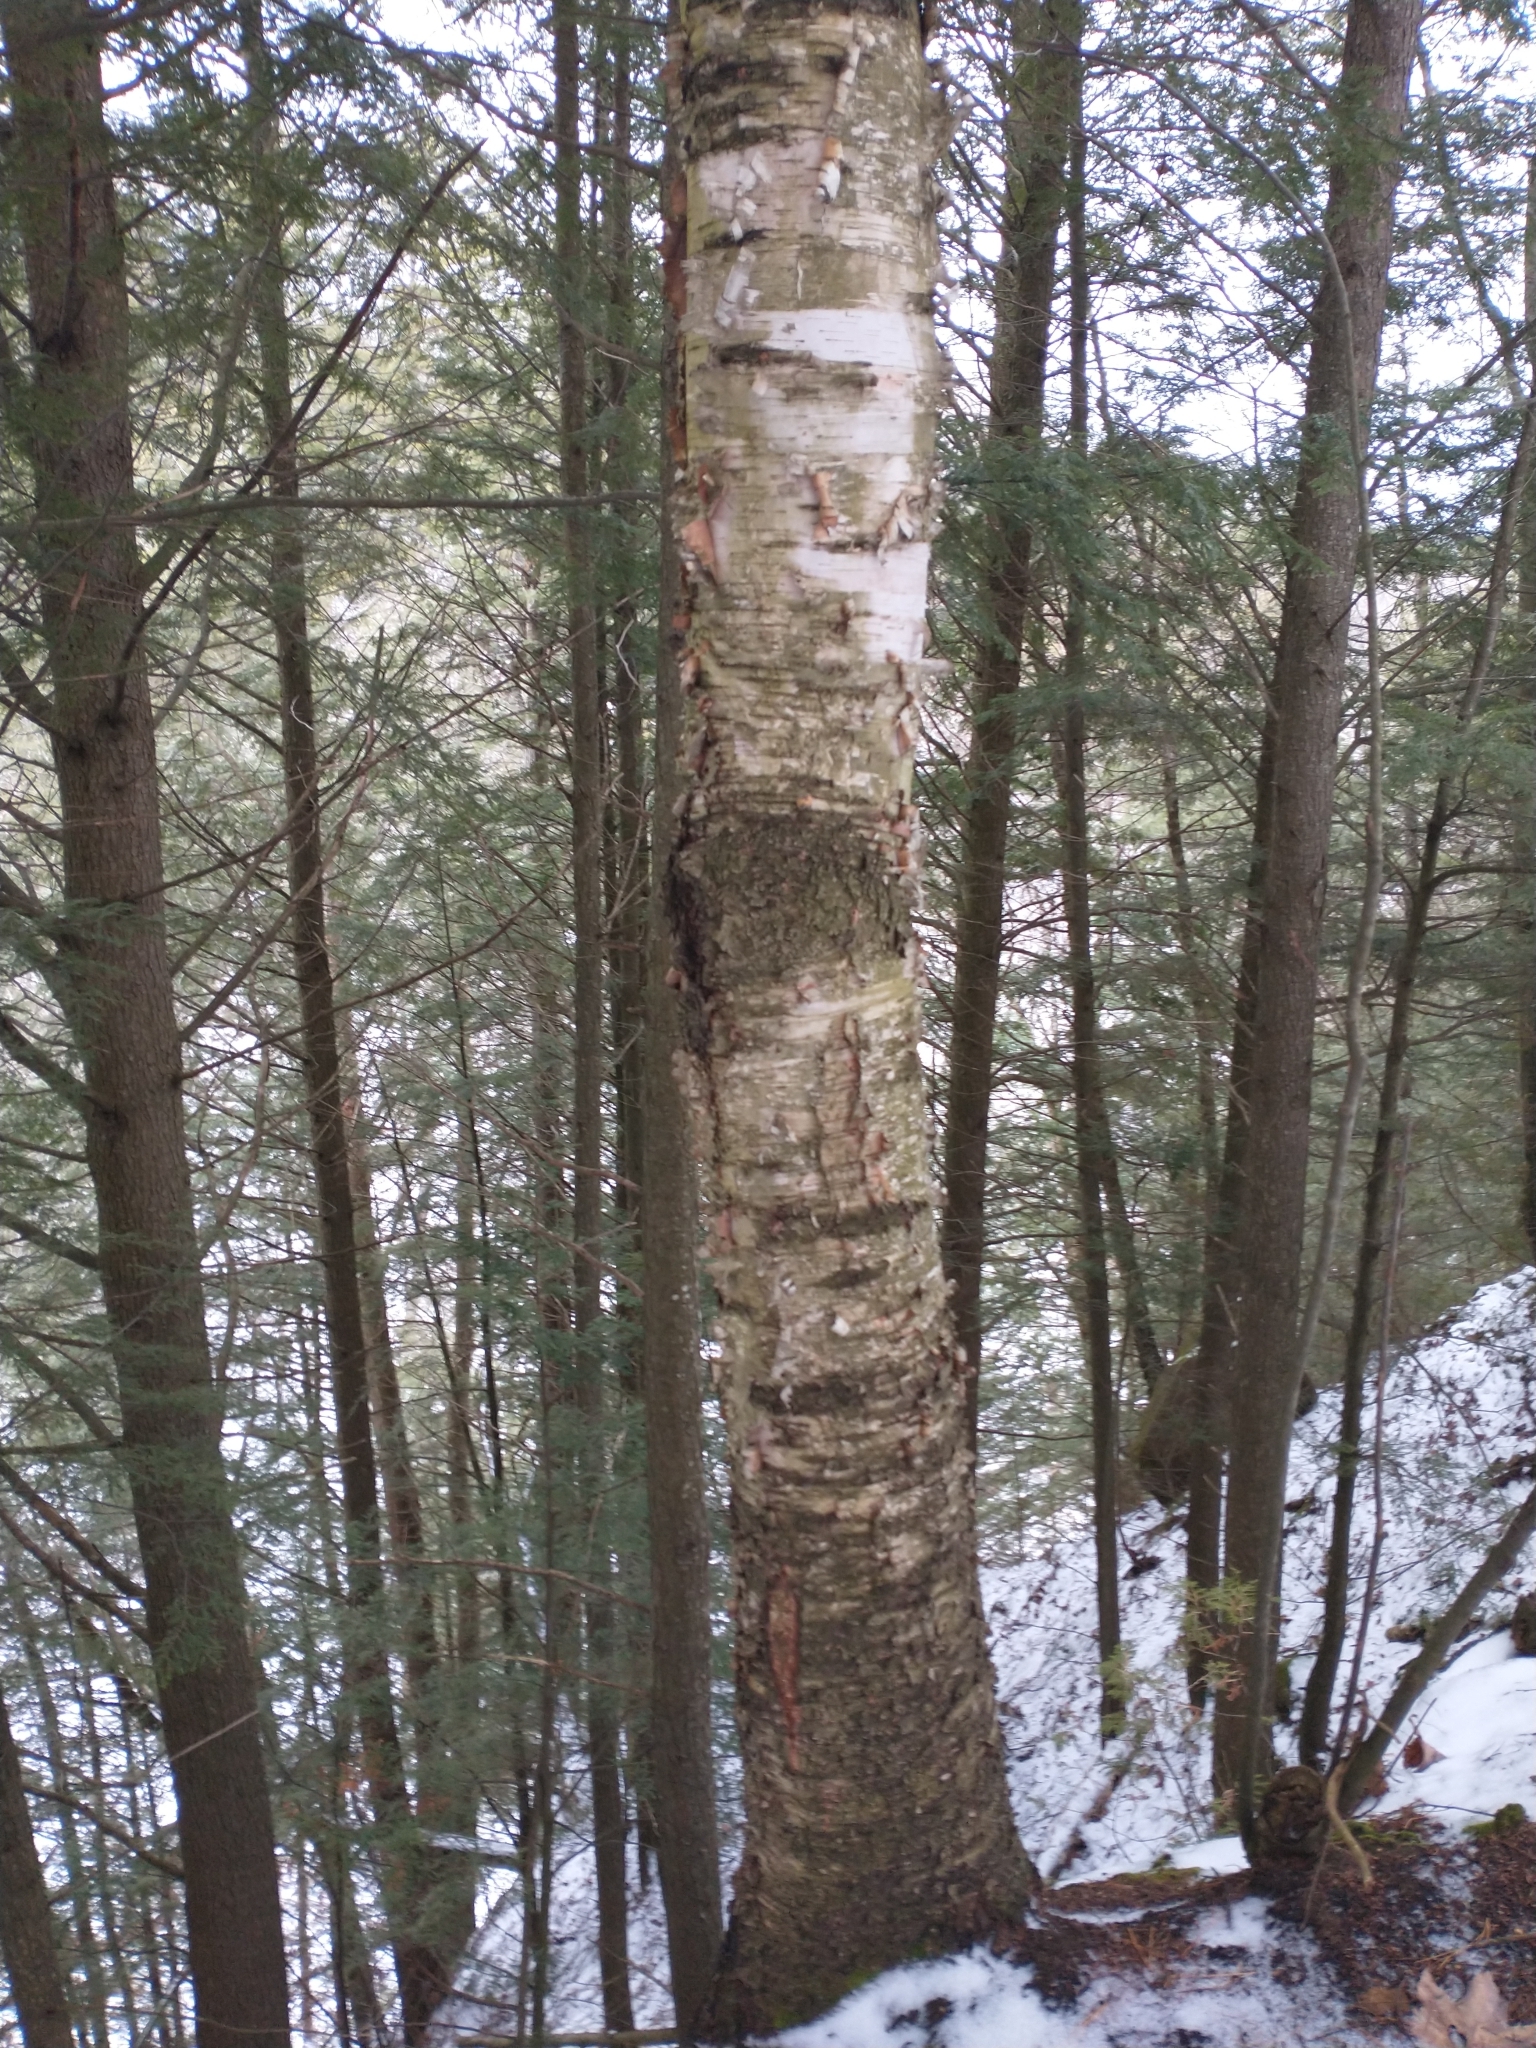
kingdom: Plantae
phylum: Tracheophyta
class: Magnoliopsida
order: Fagales
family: Betulaceae
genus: Betula
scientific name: Betula papyrifera
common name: Paper birch
